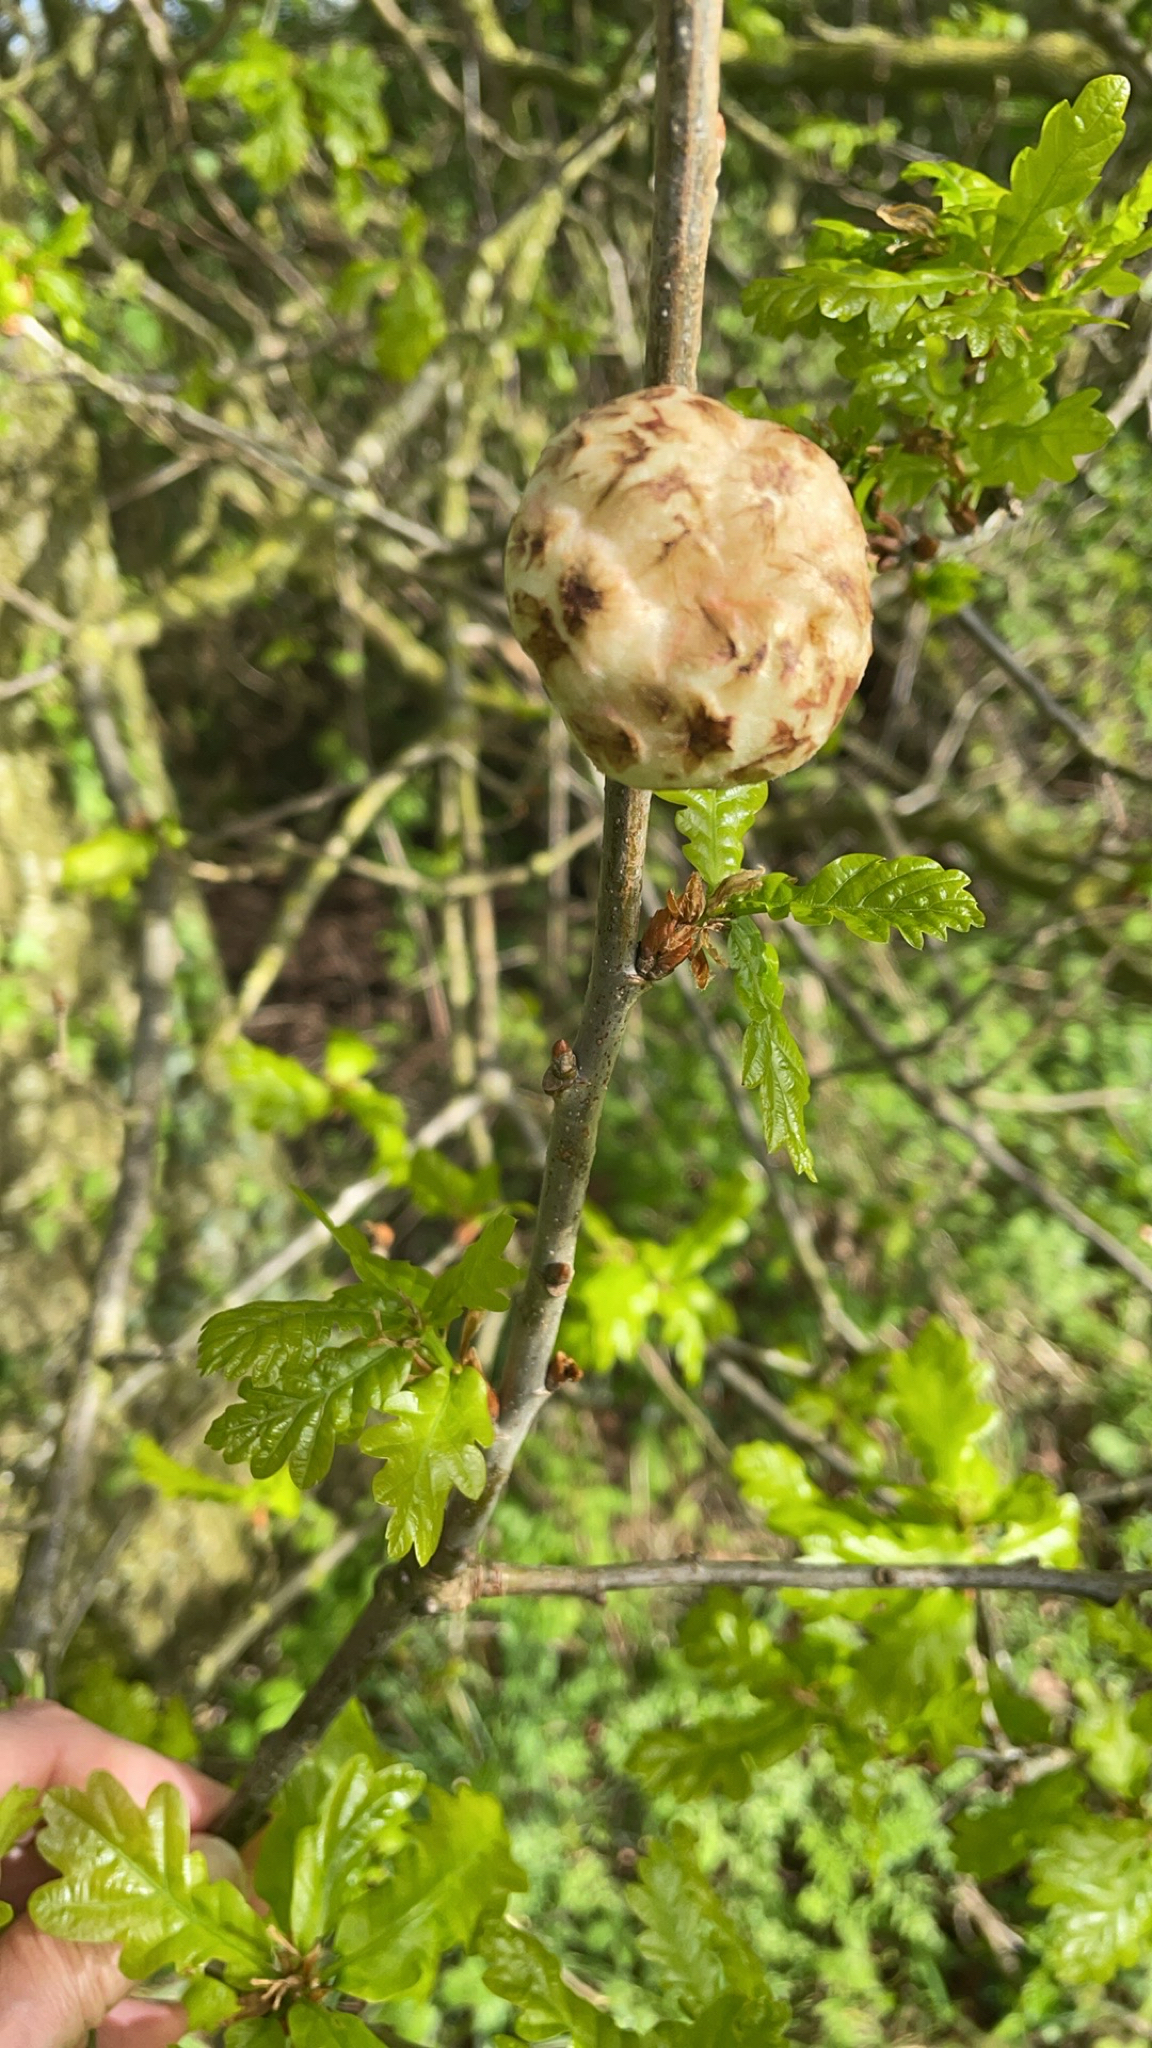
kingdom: Animalia
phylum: Arthropoda
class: Insecta
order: Hymenoptera
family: Cynipidae
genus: Biorhiza
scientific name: Biorhiza pallida
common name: Oak apple
